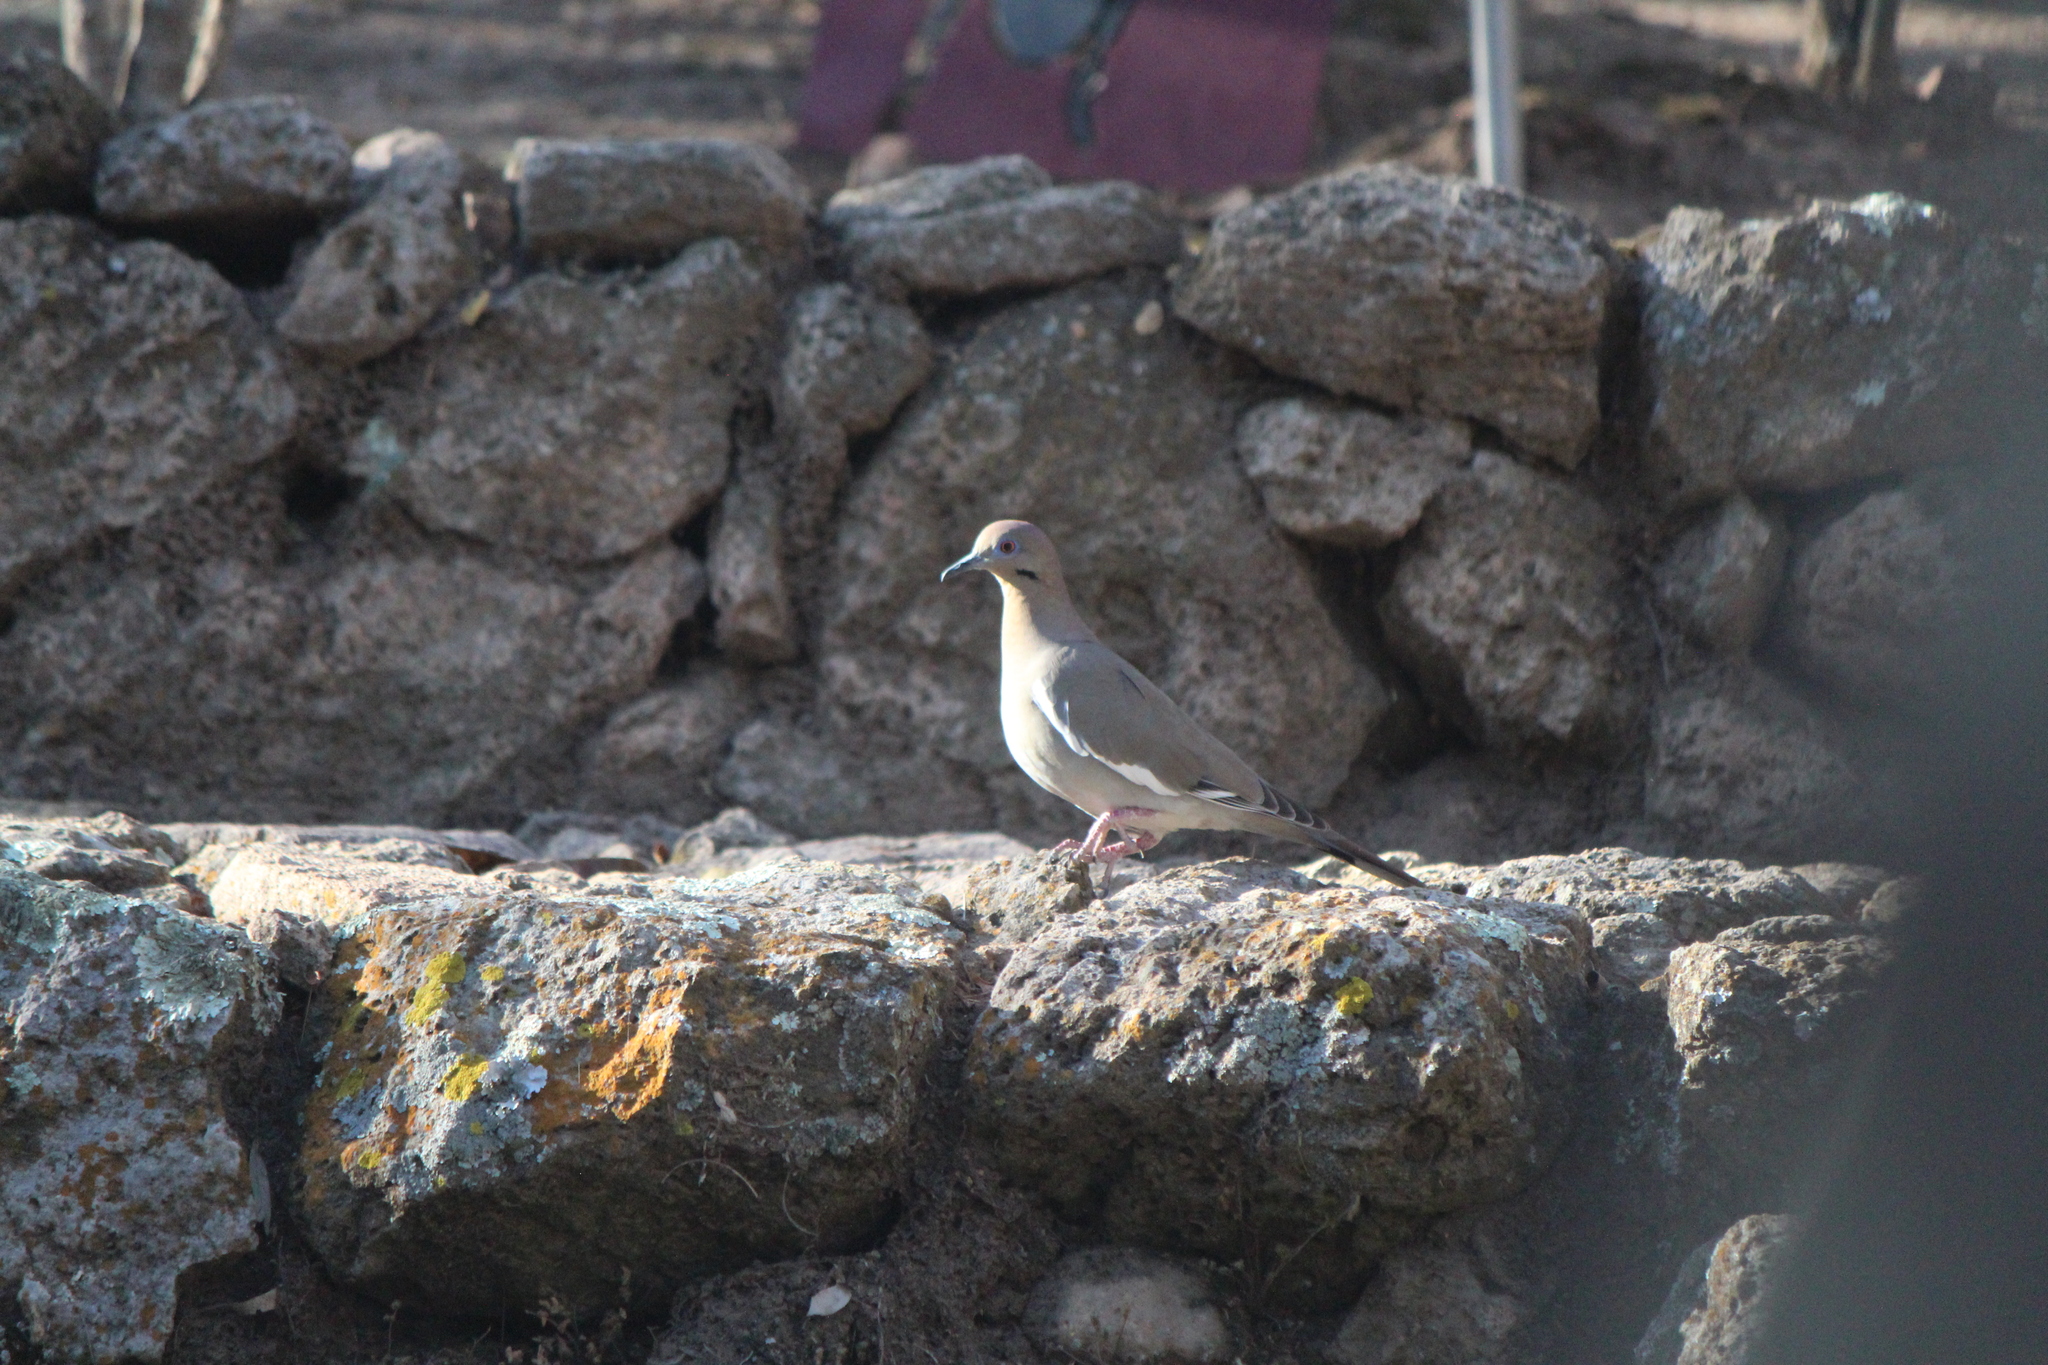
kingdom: Animalia
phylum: Chordata
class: Aves
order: Columbiformes
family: Columbidae
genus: Zenaida
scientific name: Zenaida asiatica
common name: White-winged dove
